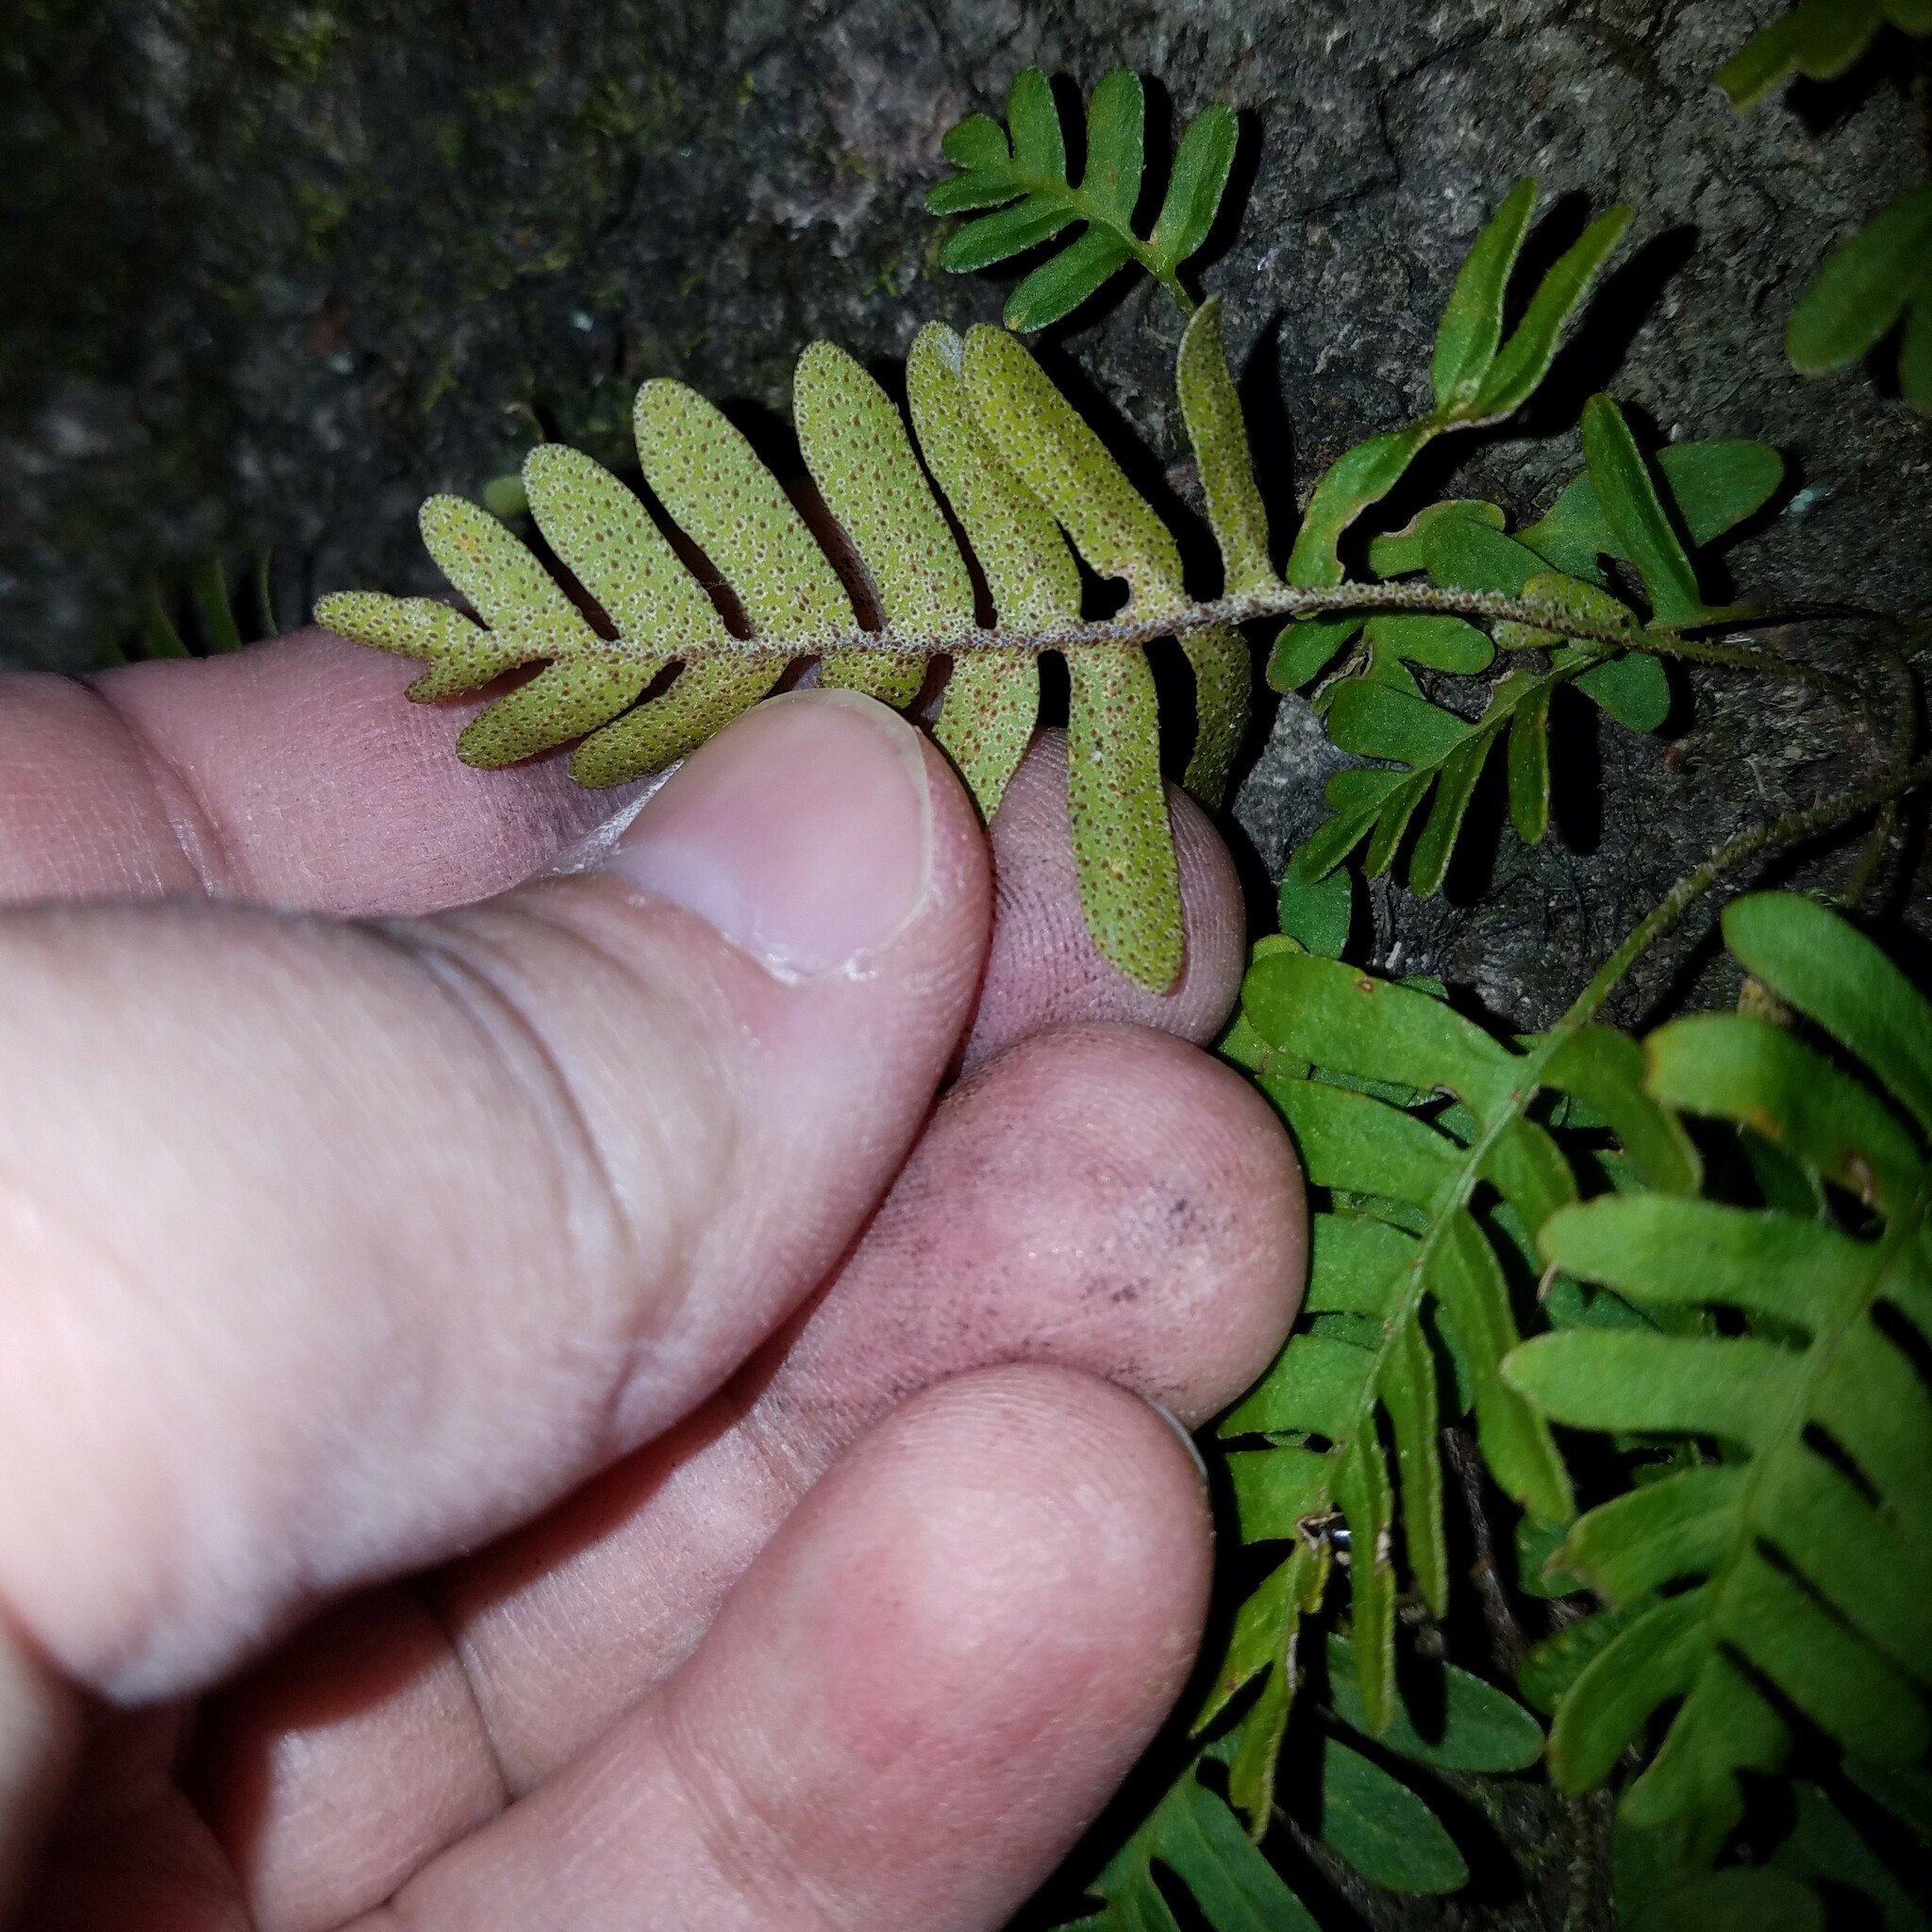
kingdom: Plantae
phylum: Tracheophyta
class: Polypodiopsida
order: Polypodiales
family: Polypodiaceae
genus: Pleopeltis
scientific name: Pleopeltis michauxiana
